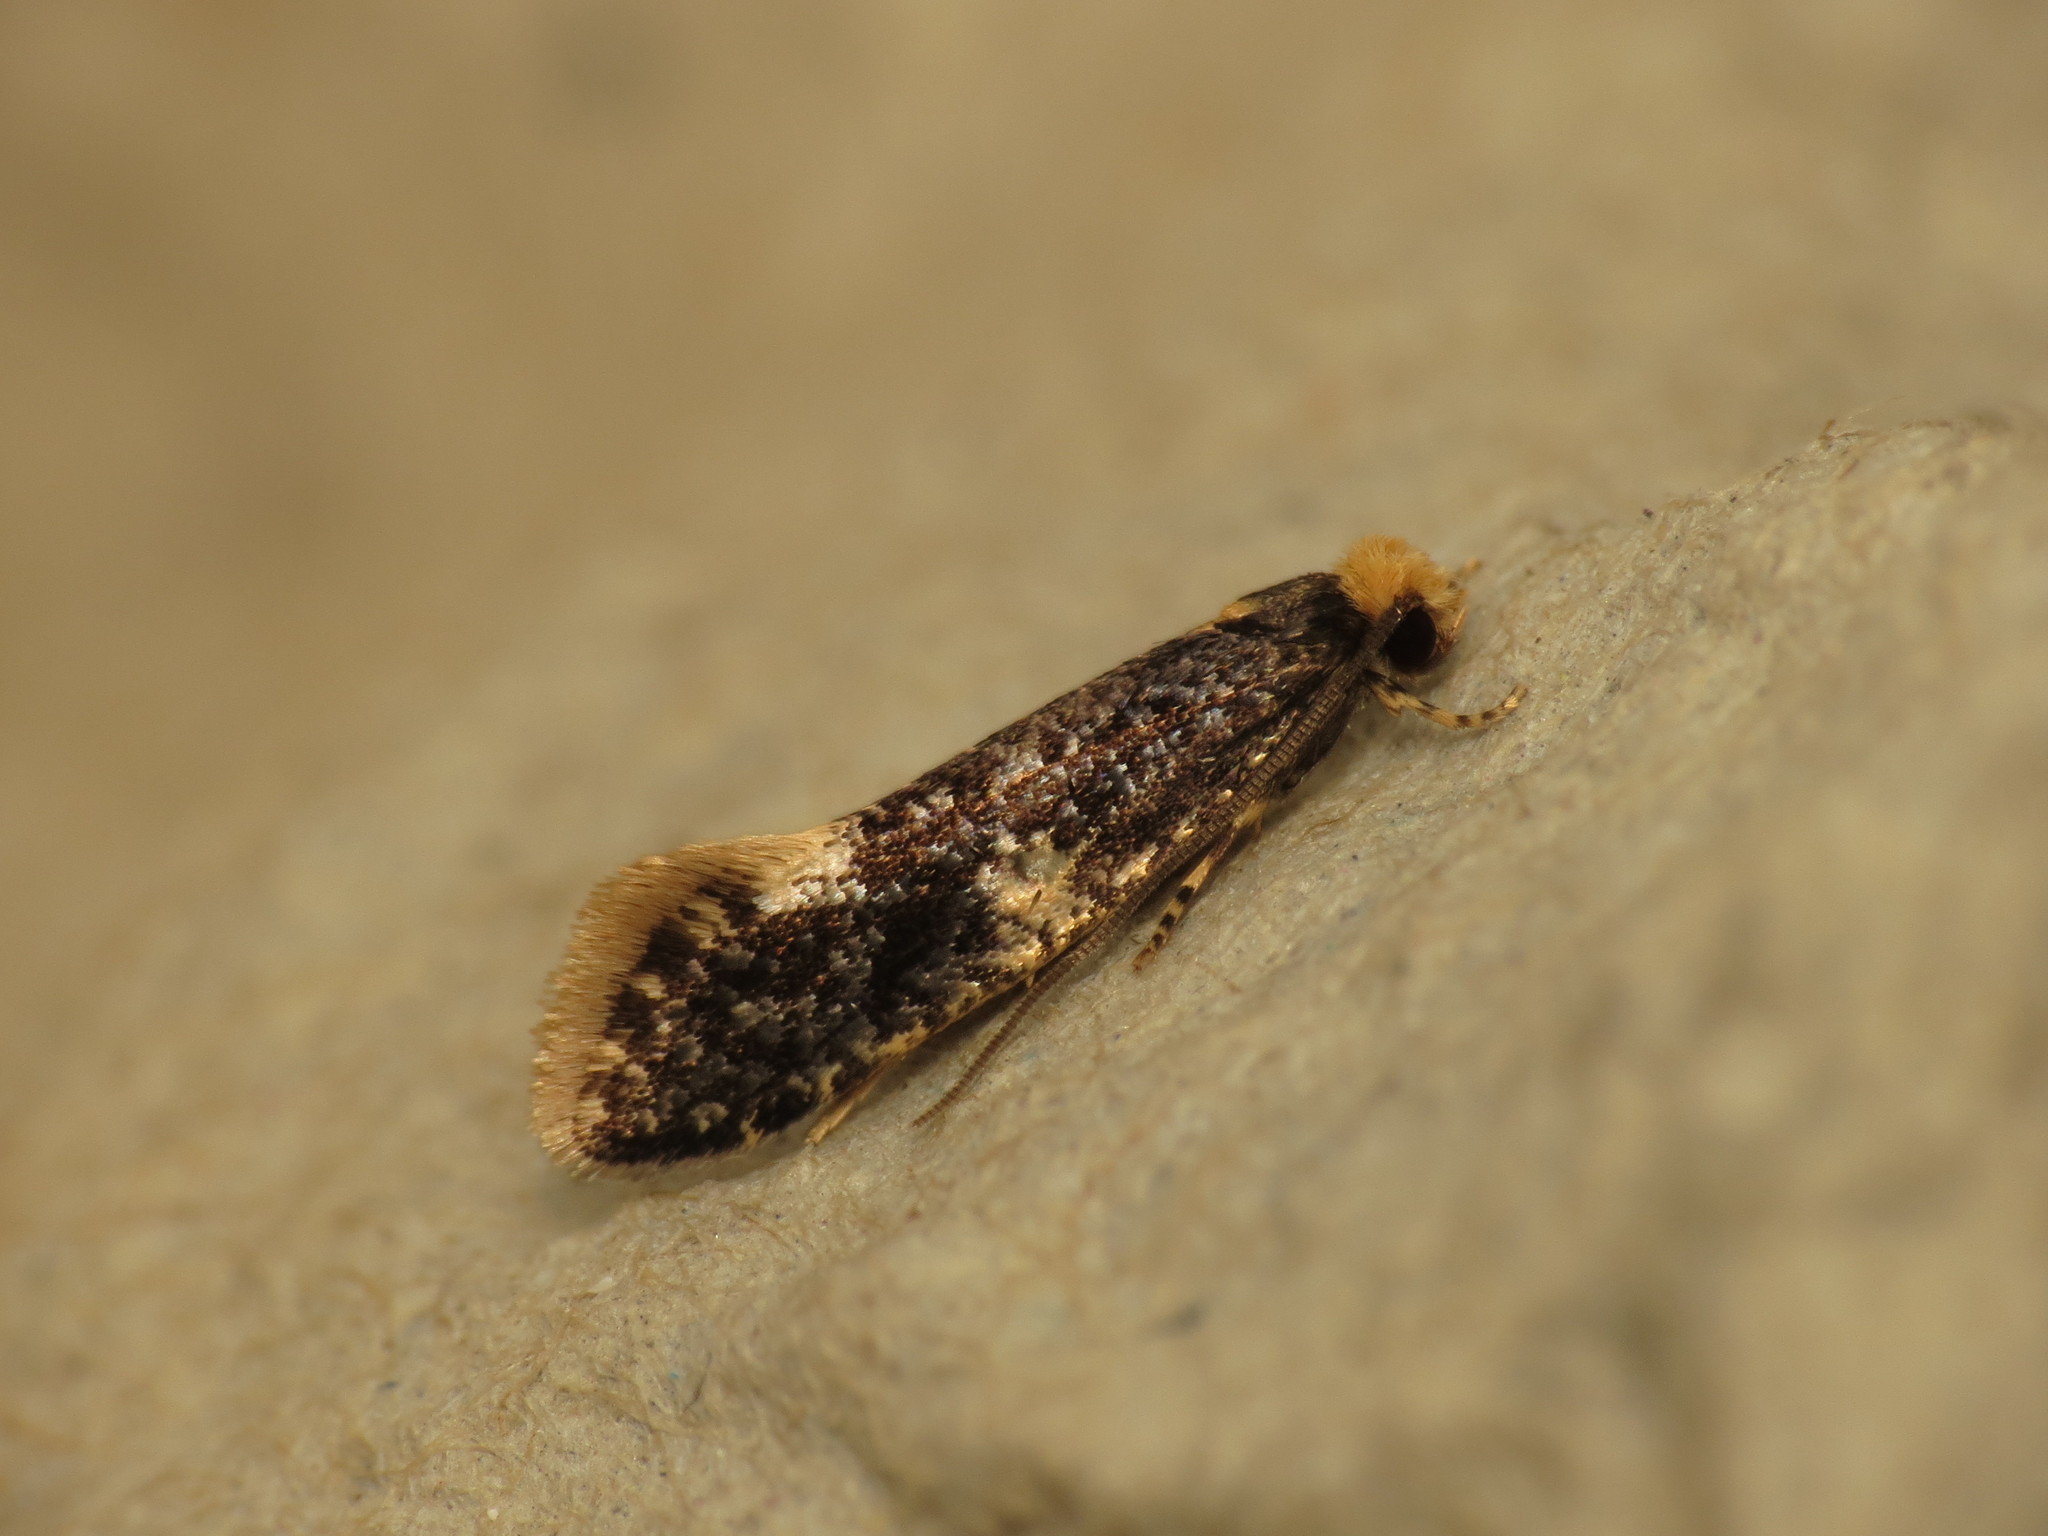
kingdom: Animalia
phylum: Arthropoda
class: Insecta
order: Lepidoptera
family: Tineidae
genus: Monopis
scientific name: Monopis weaverella
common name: Carrion moth
